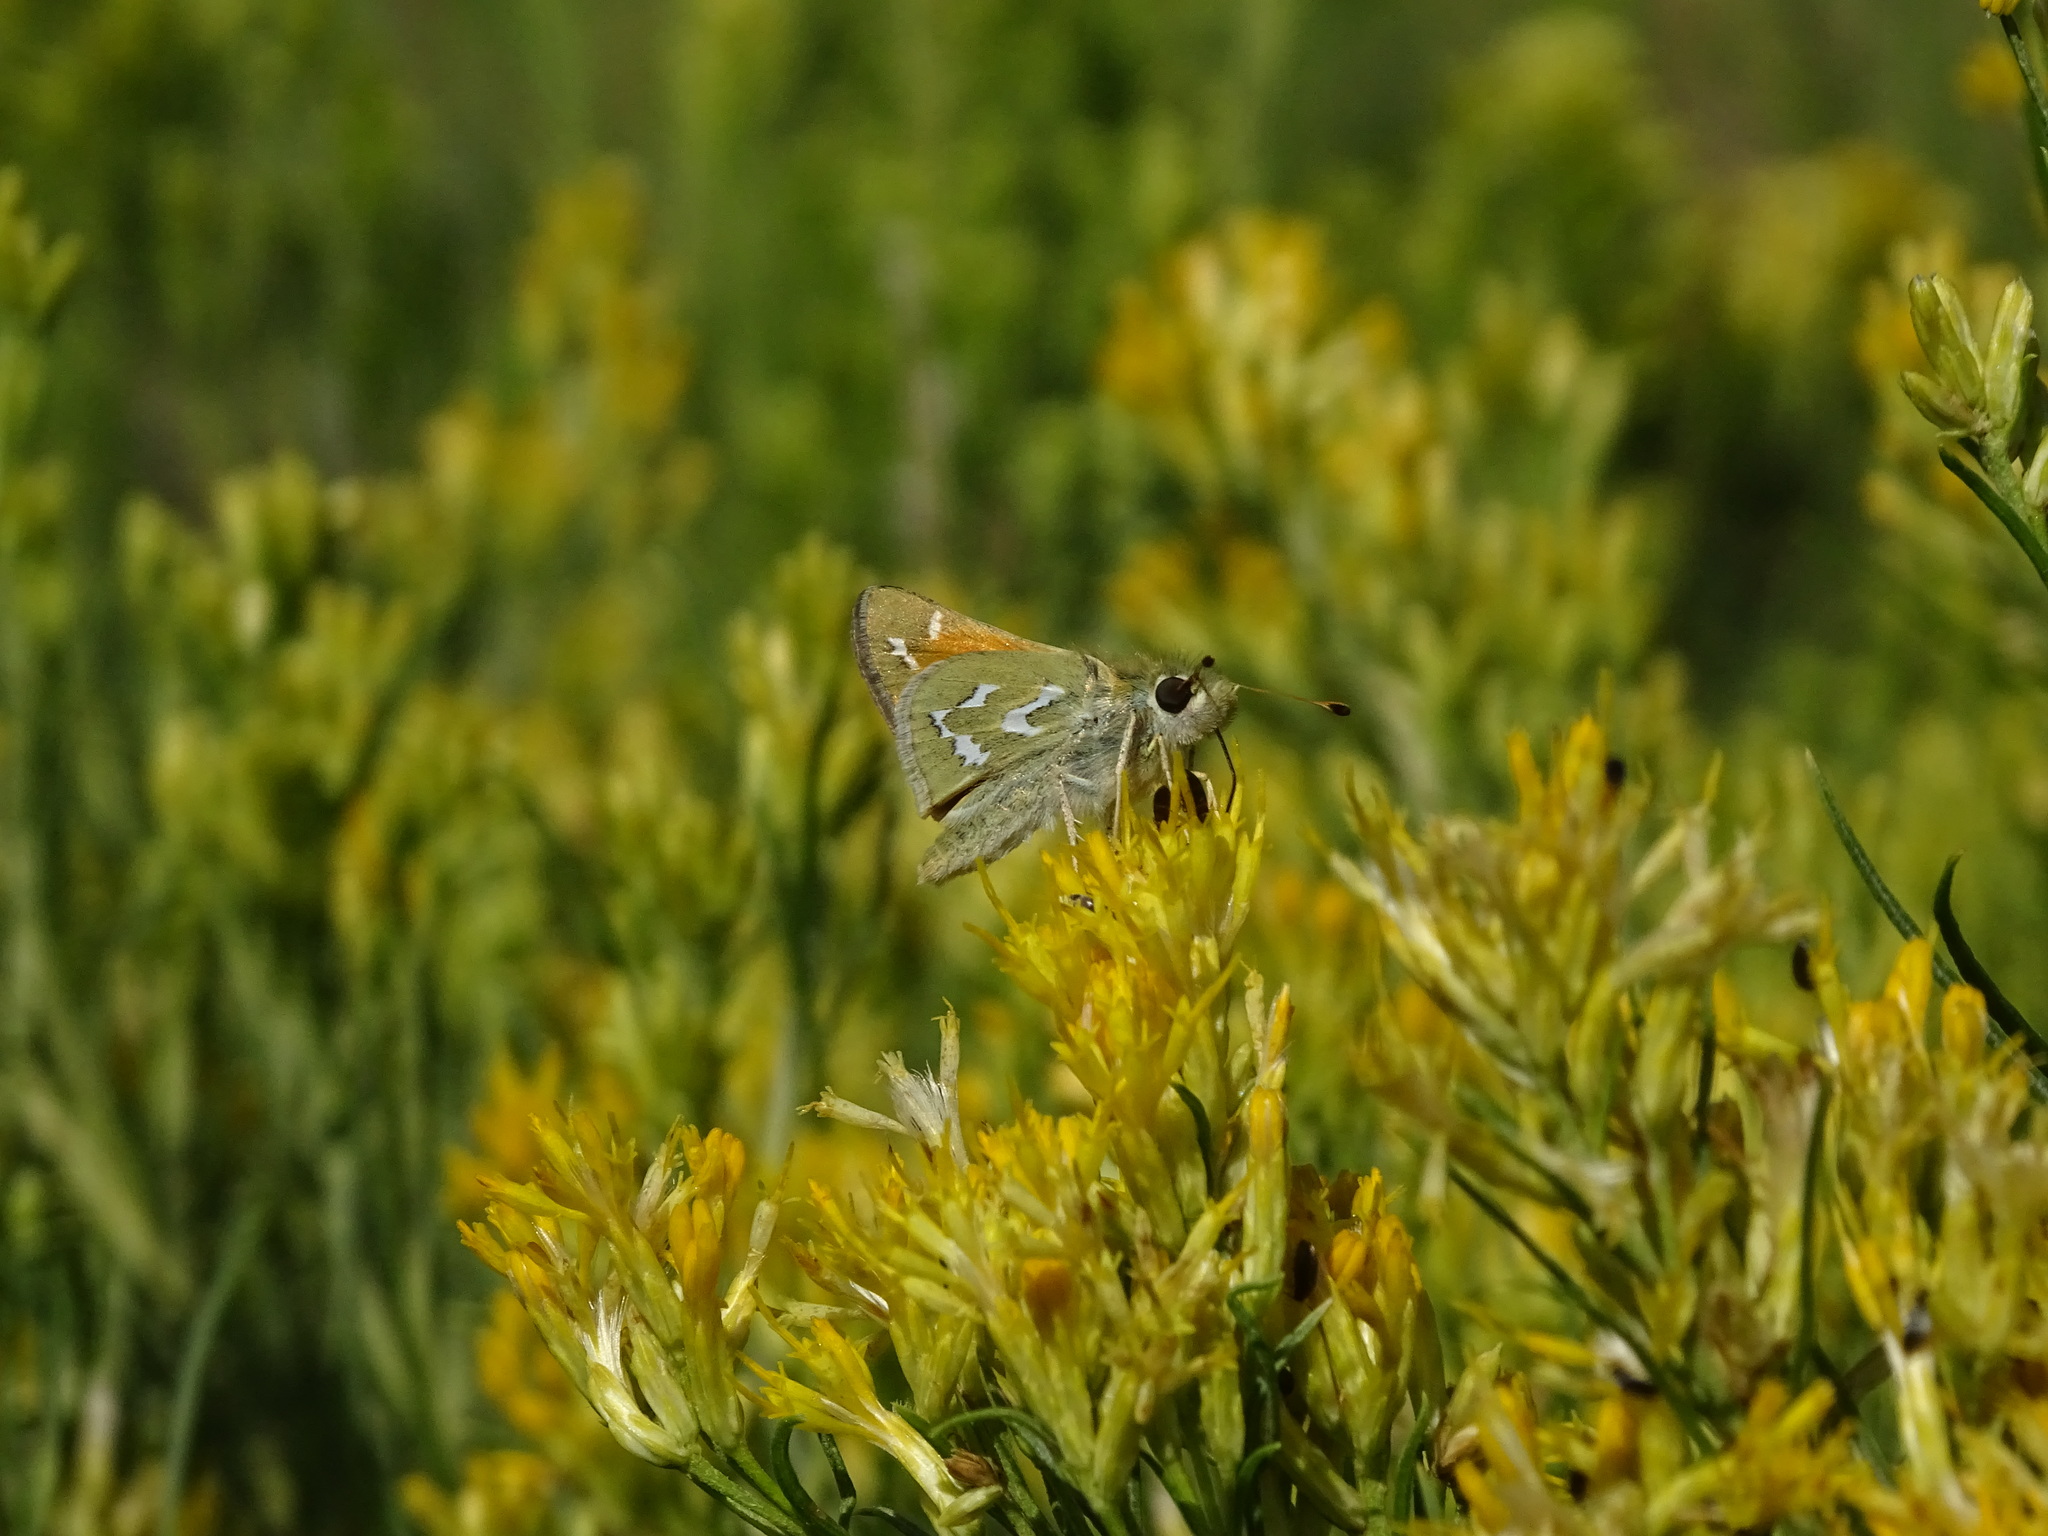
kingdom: Animalia
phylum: Arthropoda
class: Insecta
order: Lepidoptera
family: Hesperiidae
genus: Hesperia
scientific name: Hesperia comma
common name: Common branded skipper
